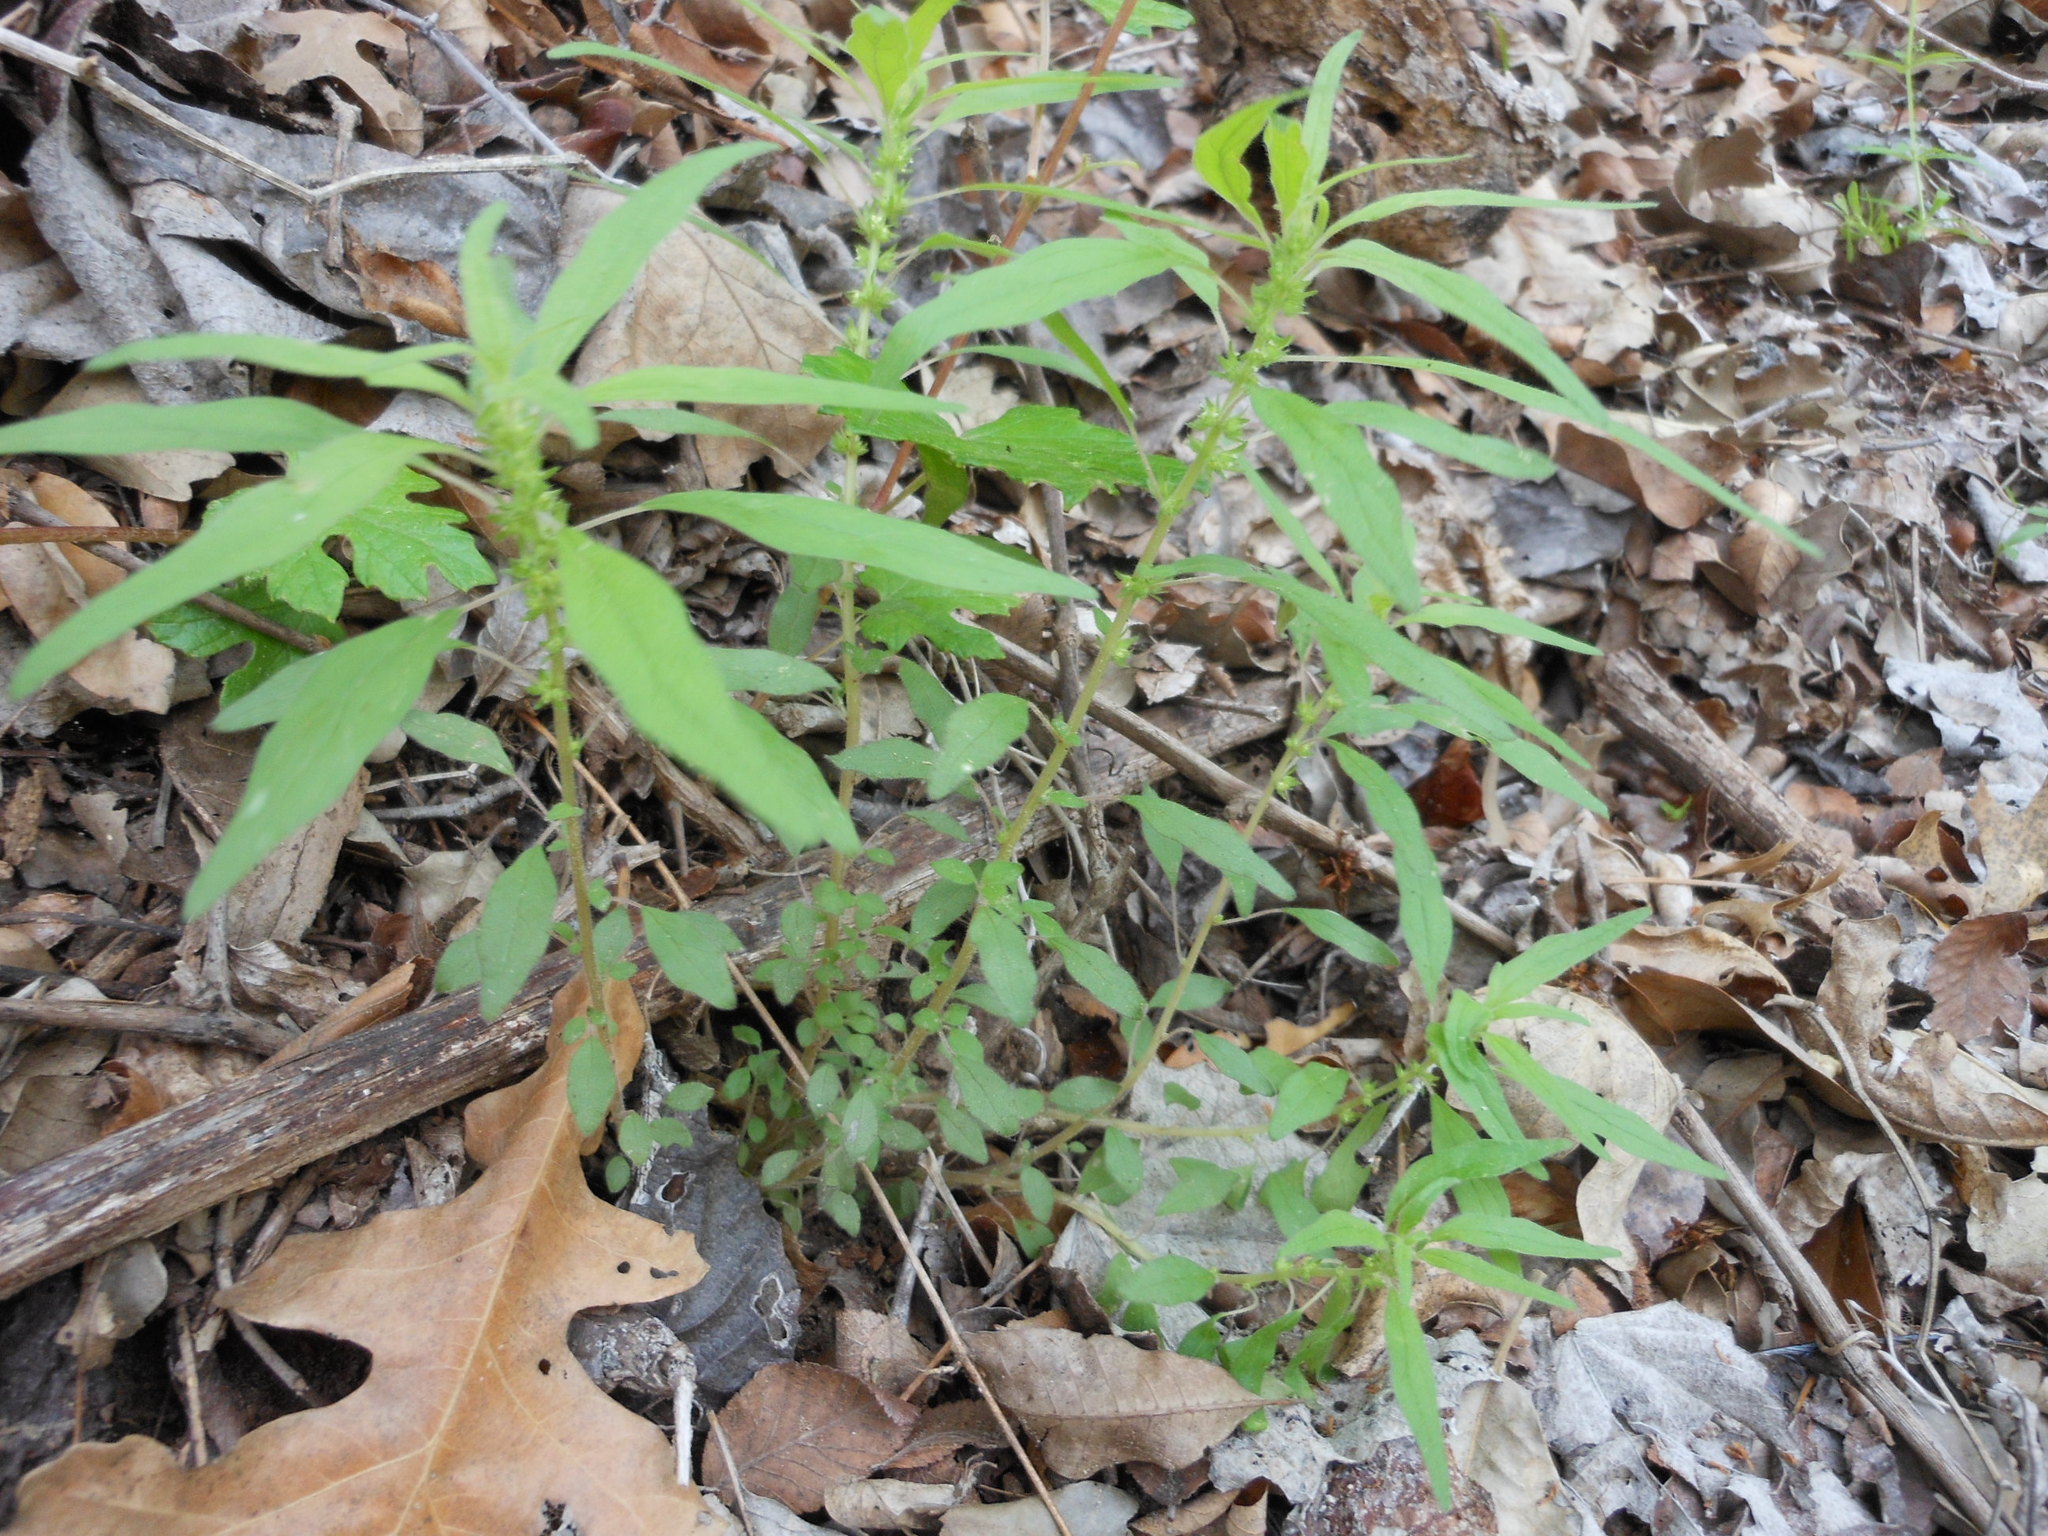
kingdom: Plantae
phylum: Tracheophyta
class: Magnoliopsida
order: Rosales
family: Urticaceae
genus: Parietaria
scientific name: Parietaria pensylvanica
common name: Pennsylvania pellitory
